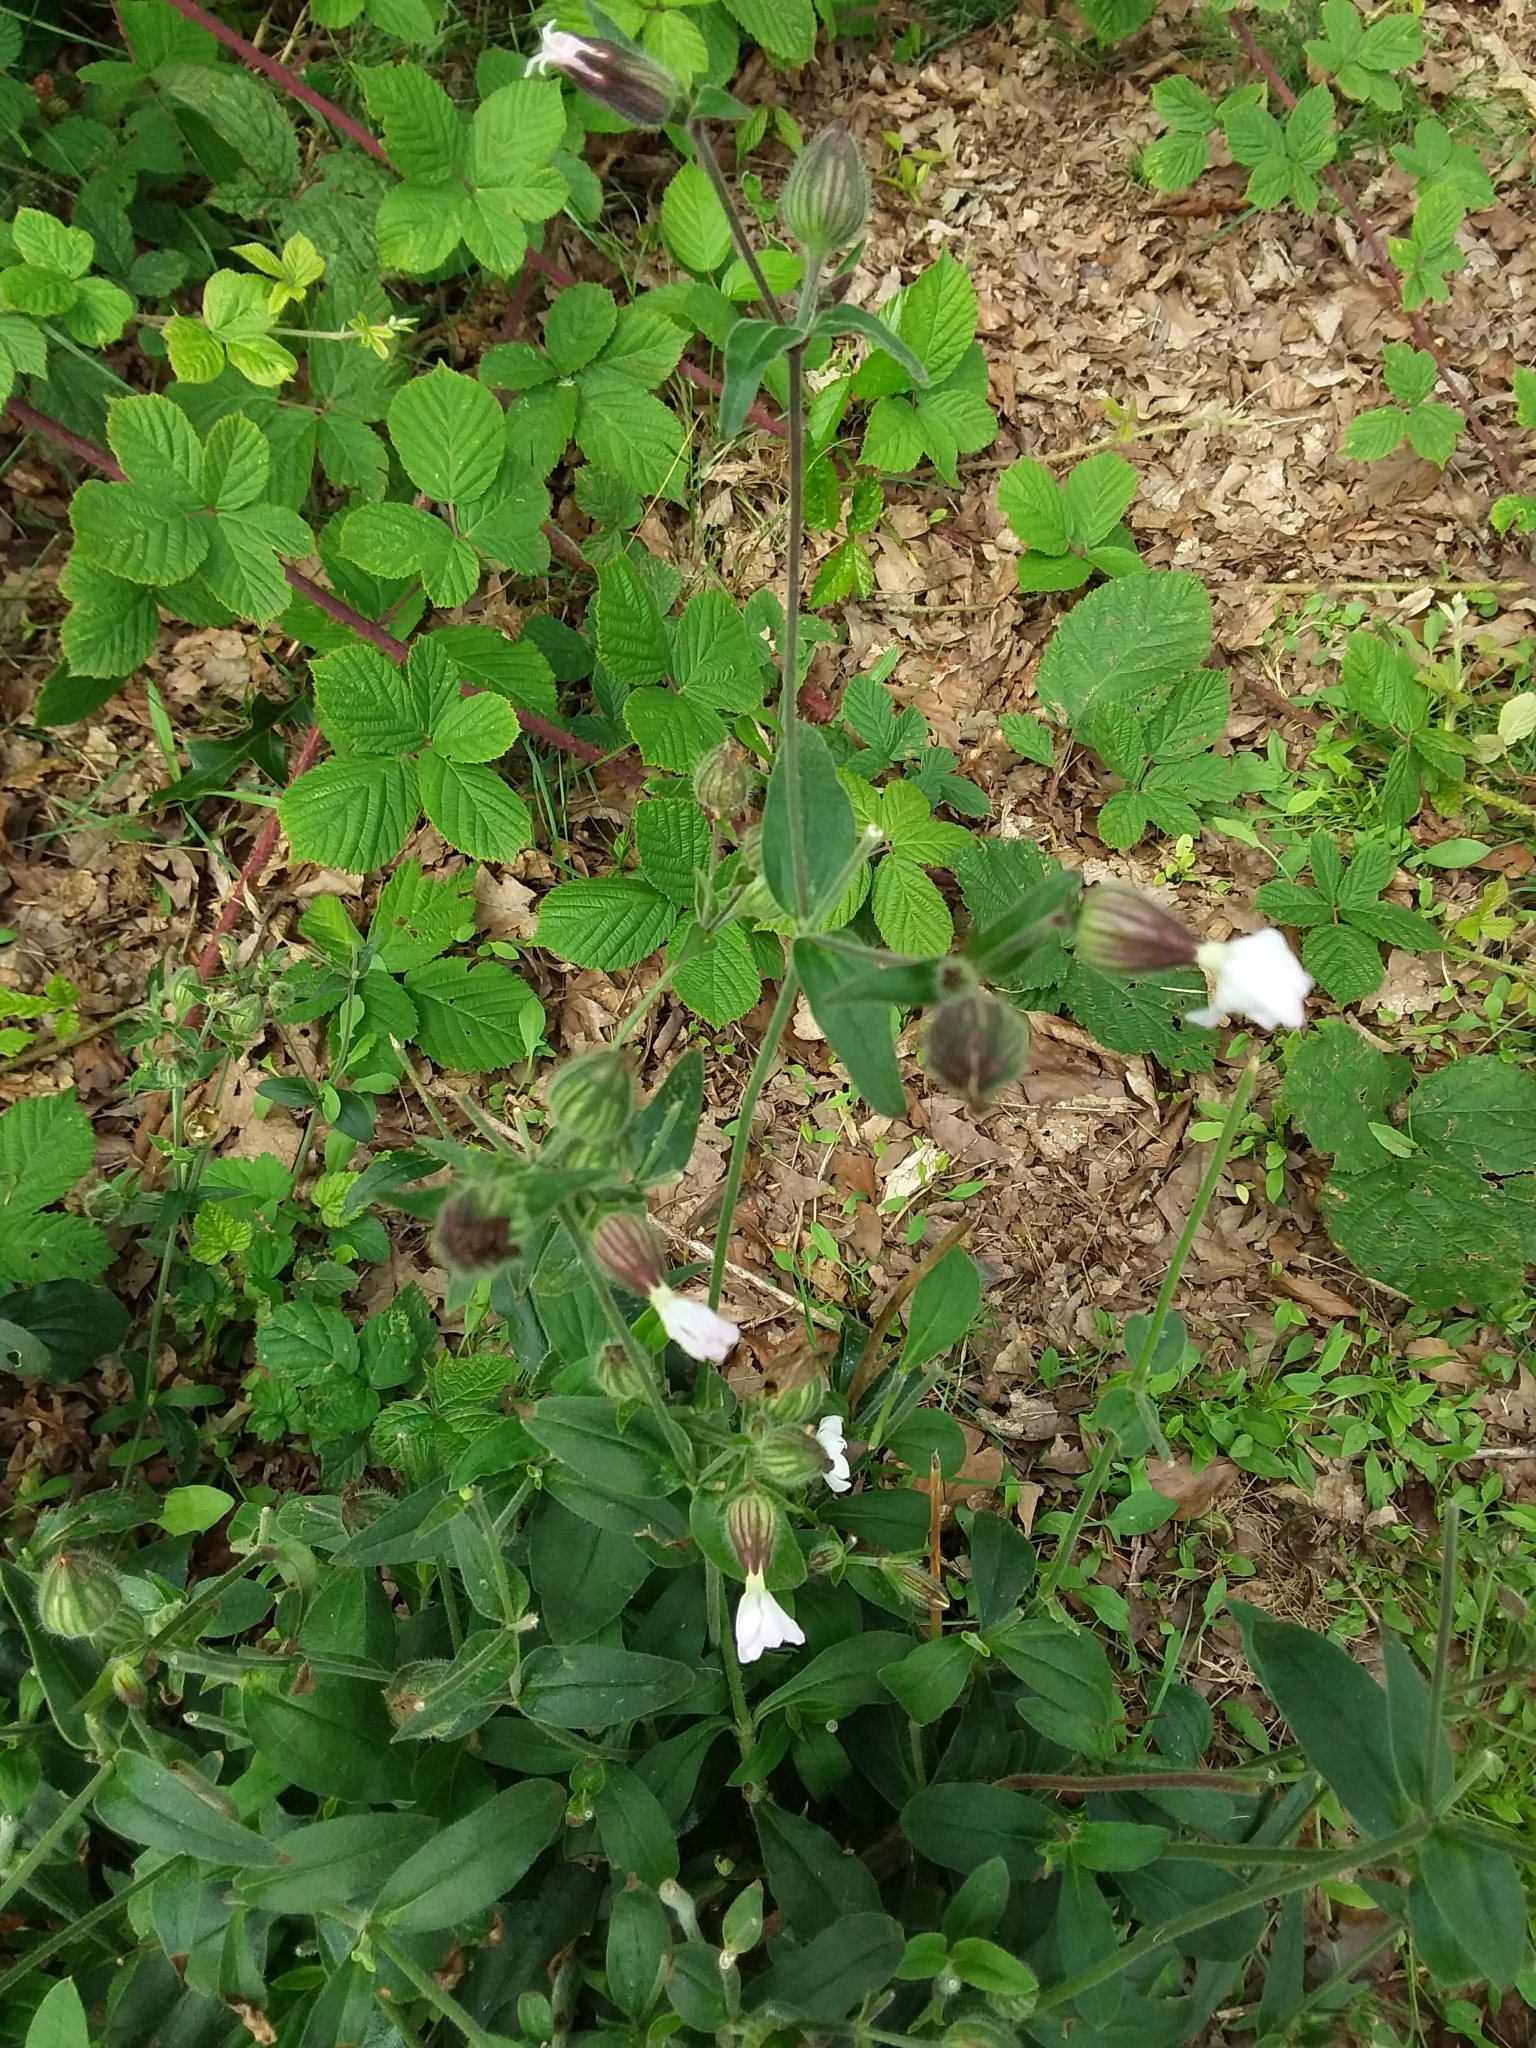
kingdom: Plantae
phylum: Tracheophyta
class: Magnoliopsida
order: Caryophyllales
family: Caryophyllaceae
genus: Silene
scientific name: Silene latifolia
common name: White campion
